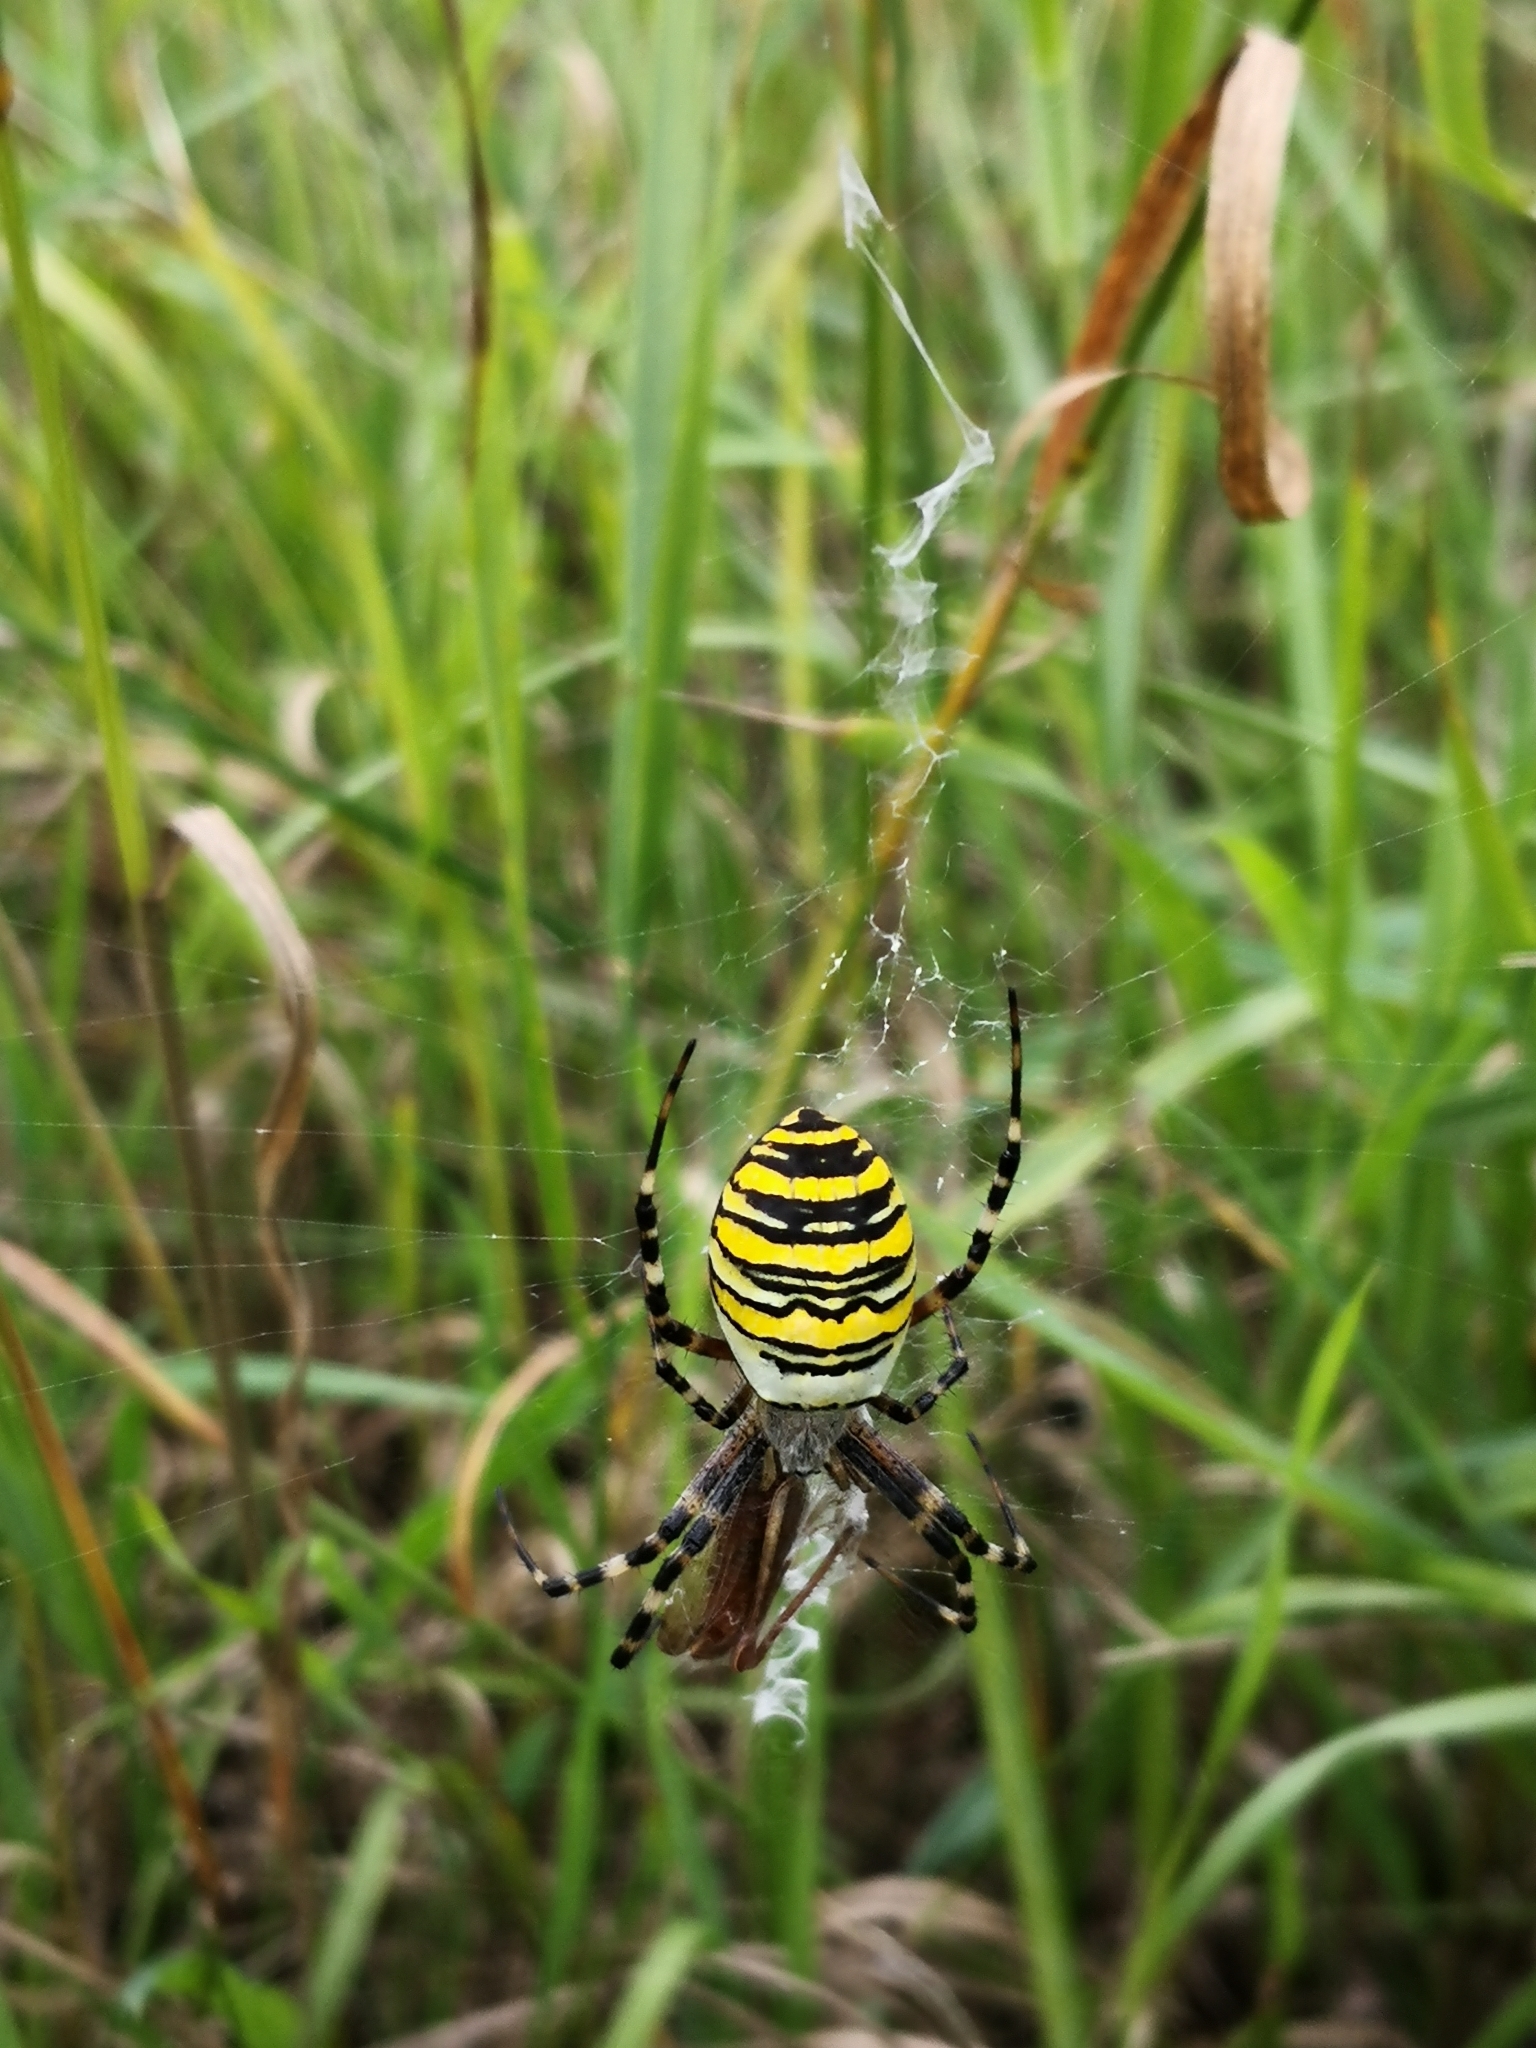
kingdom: Animalia
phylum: Arthropoda
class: Arachnida
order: Araneae
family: Araneidae
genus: Argiope
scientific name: Argiope bruennichi
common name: Wasp spider
